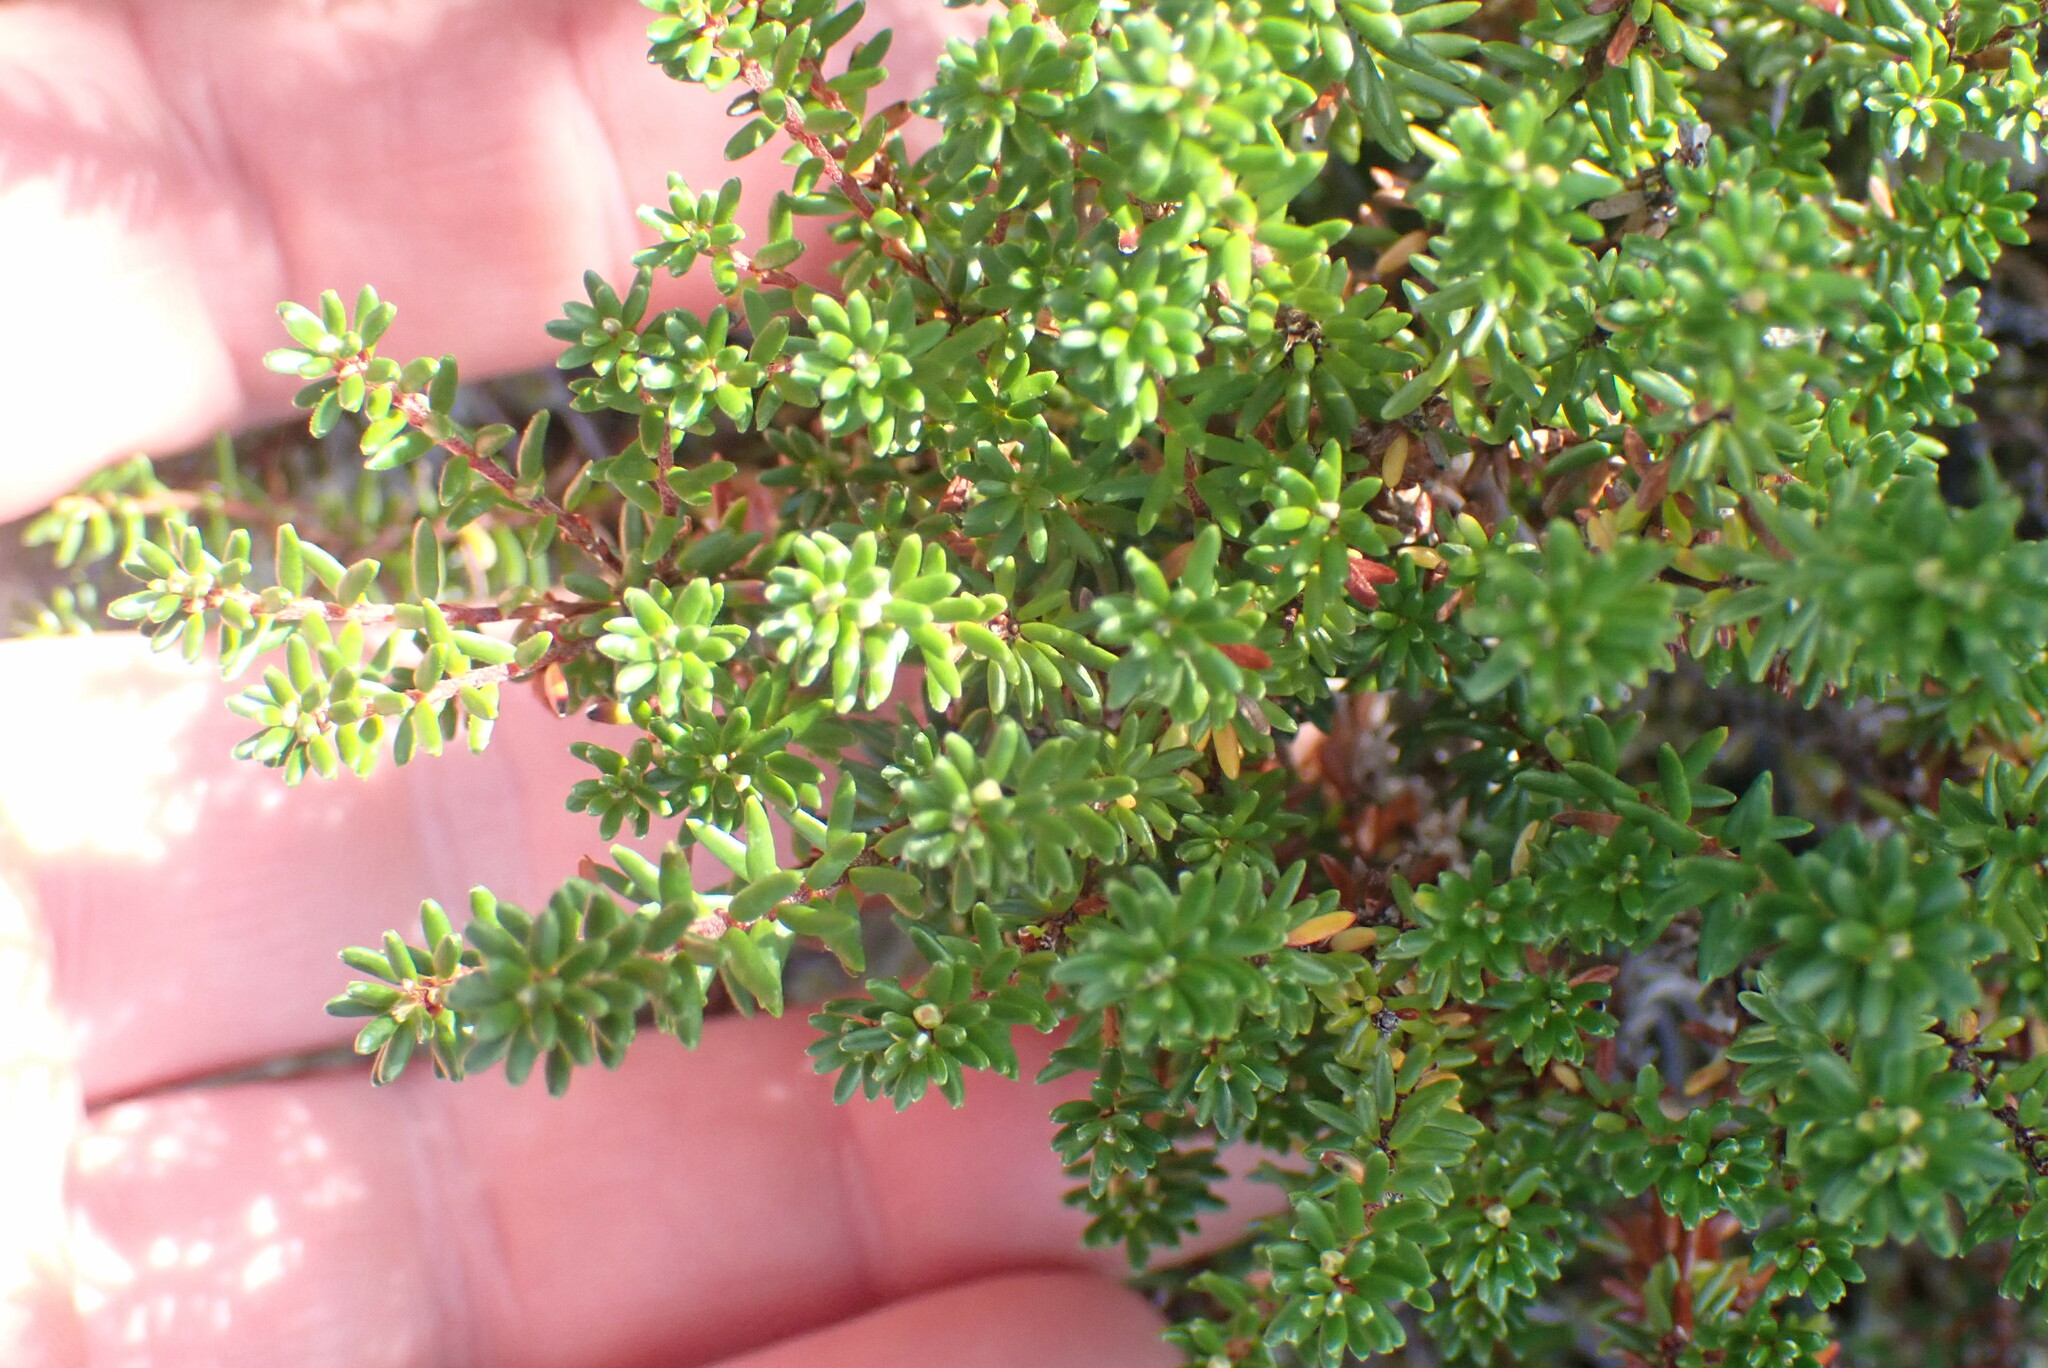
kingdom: Plantae
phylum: Tracheophyta
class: Magnoliopsida
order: Ericales
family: Ericaceae
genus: Empetrum
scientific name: Empetrum nigrum
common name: Black crowberry
